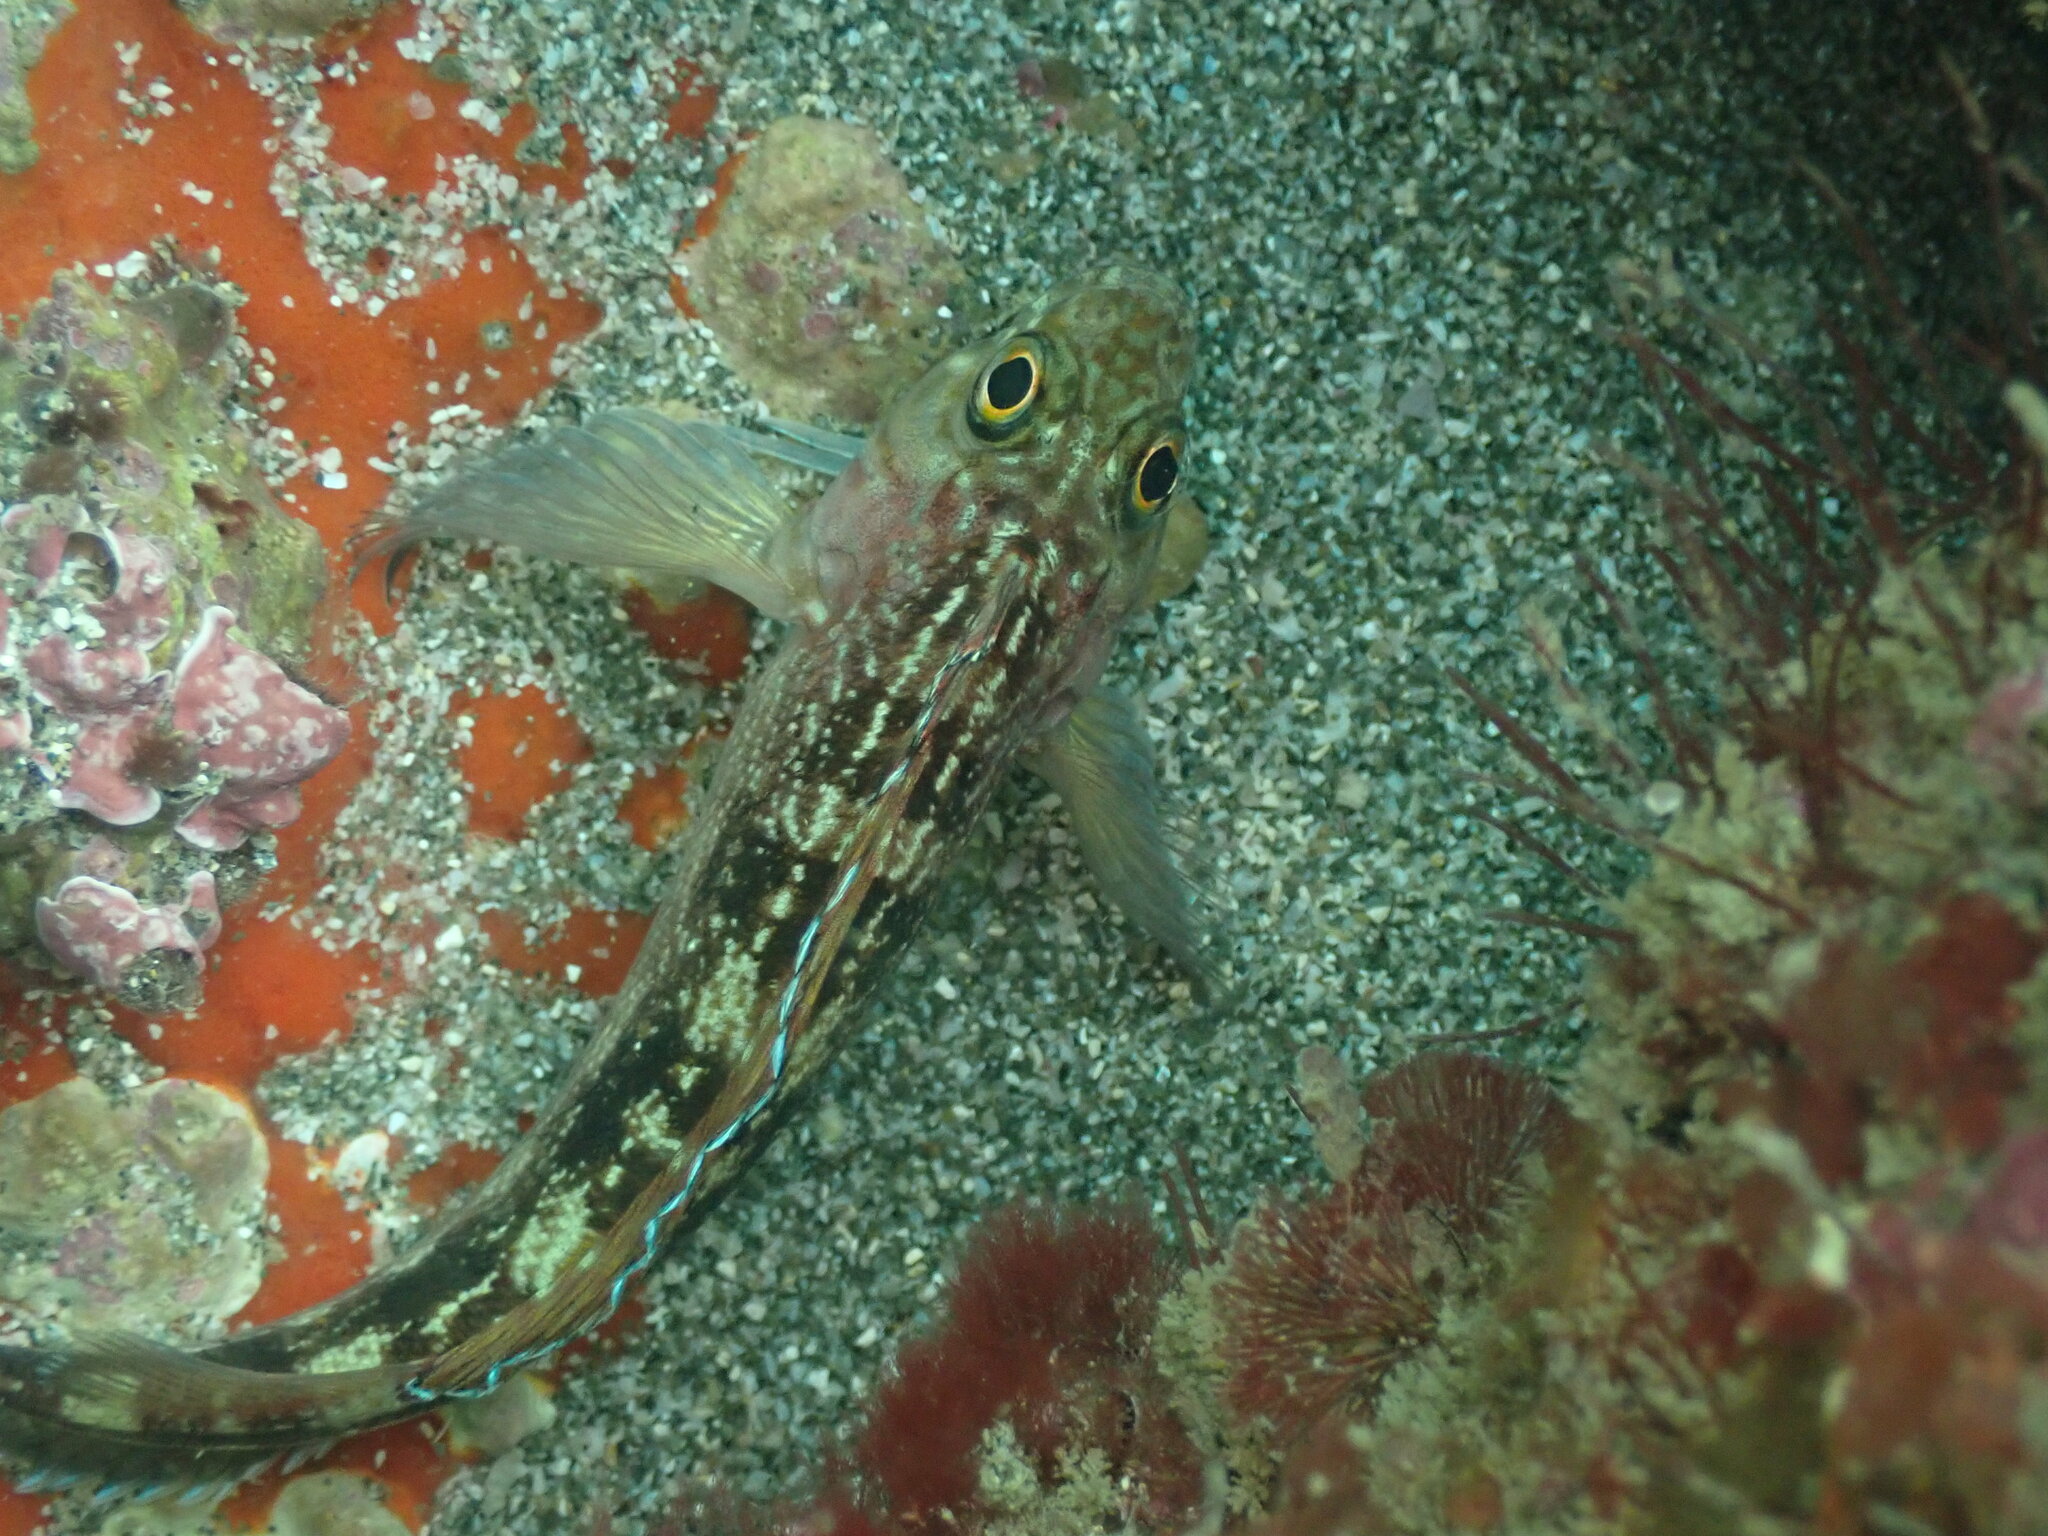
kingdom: Animalia
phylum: Chordata
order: Perciformes
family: Tripterygiidae
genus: Forsterygion
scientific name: Forsterygion varium
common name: Variable triplefin
